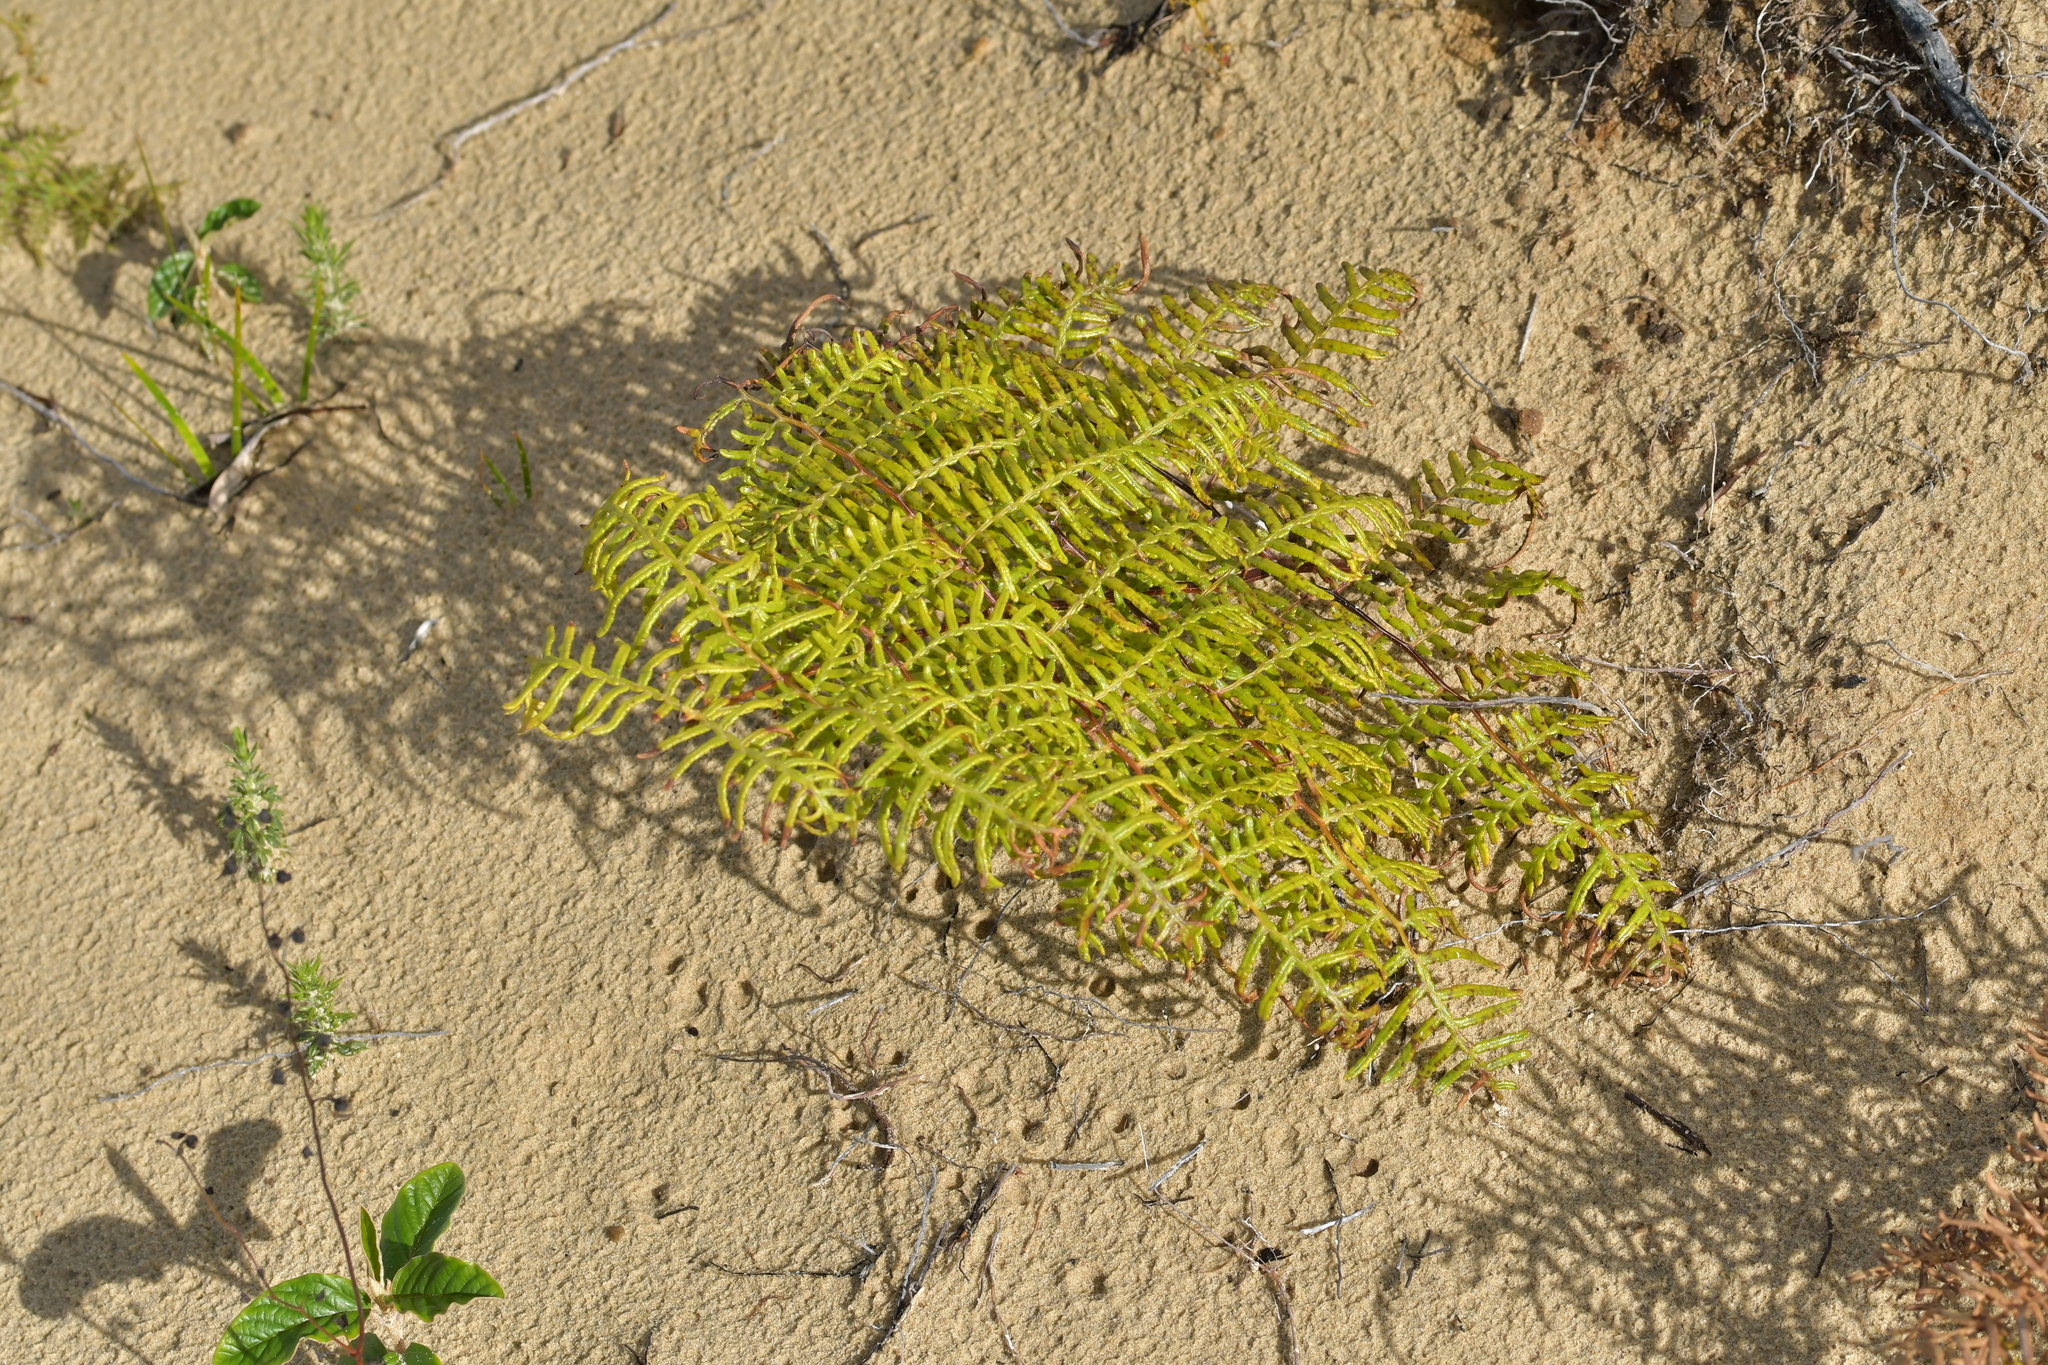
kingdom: Plantae
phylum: Tracheophyta
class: Polypodiopsida
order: Polypodiales
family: Dennstaedtiaceae
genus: Pteridium
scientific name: Pteridium esculentum
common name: Bracken fern
